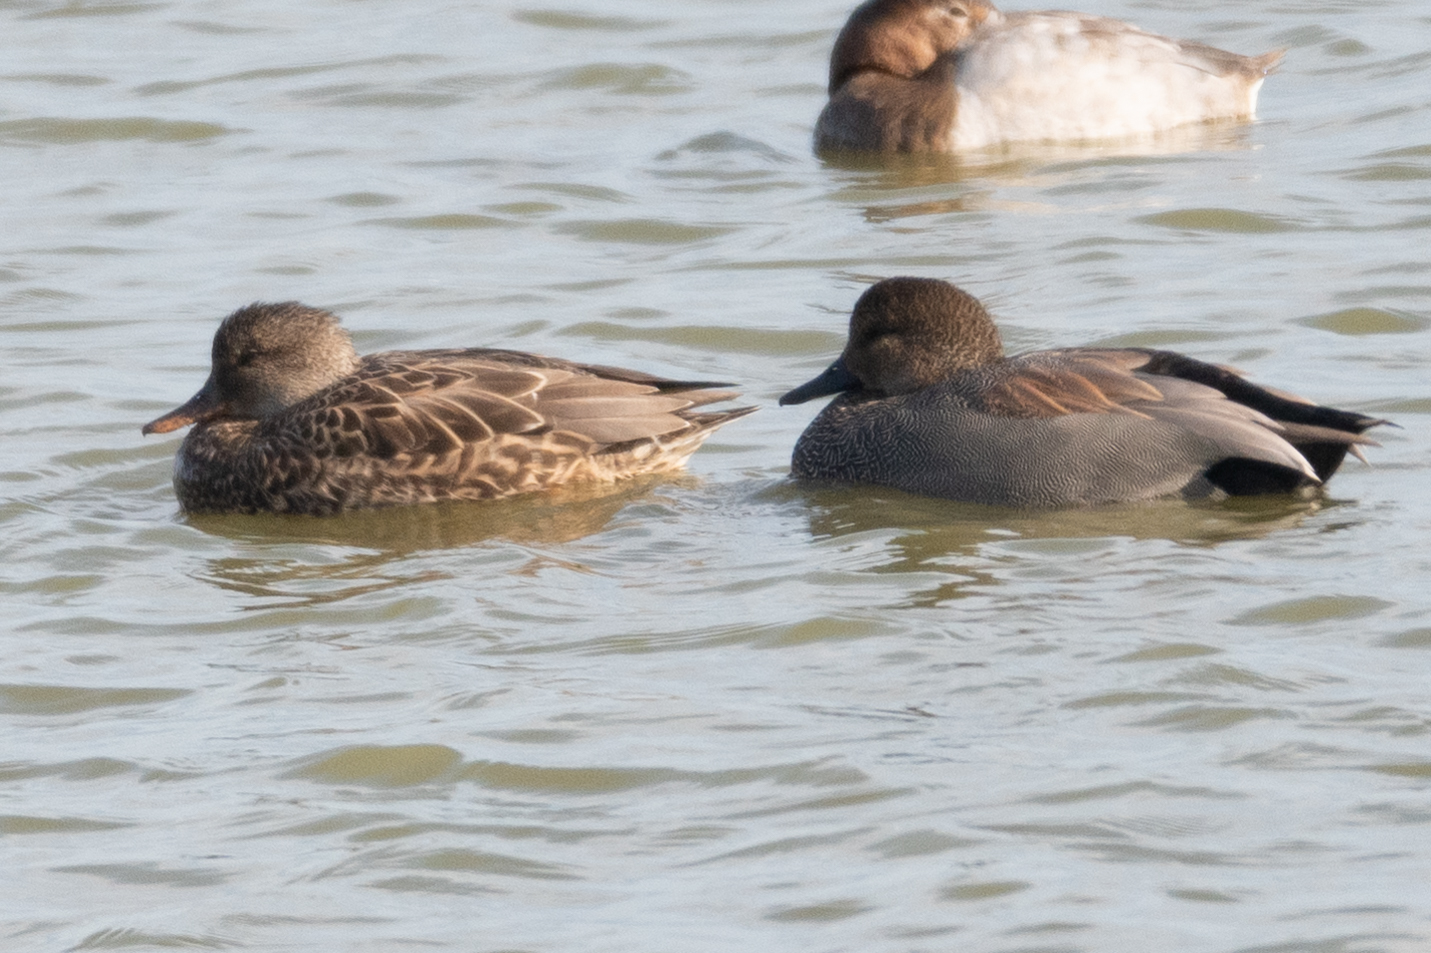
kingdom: Animalia
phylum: Chordata
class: Aves
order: Anseriformes
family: Anatidae
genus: Mareca
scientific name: Mareca strepera
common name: Gadwall
